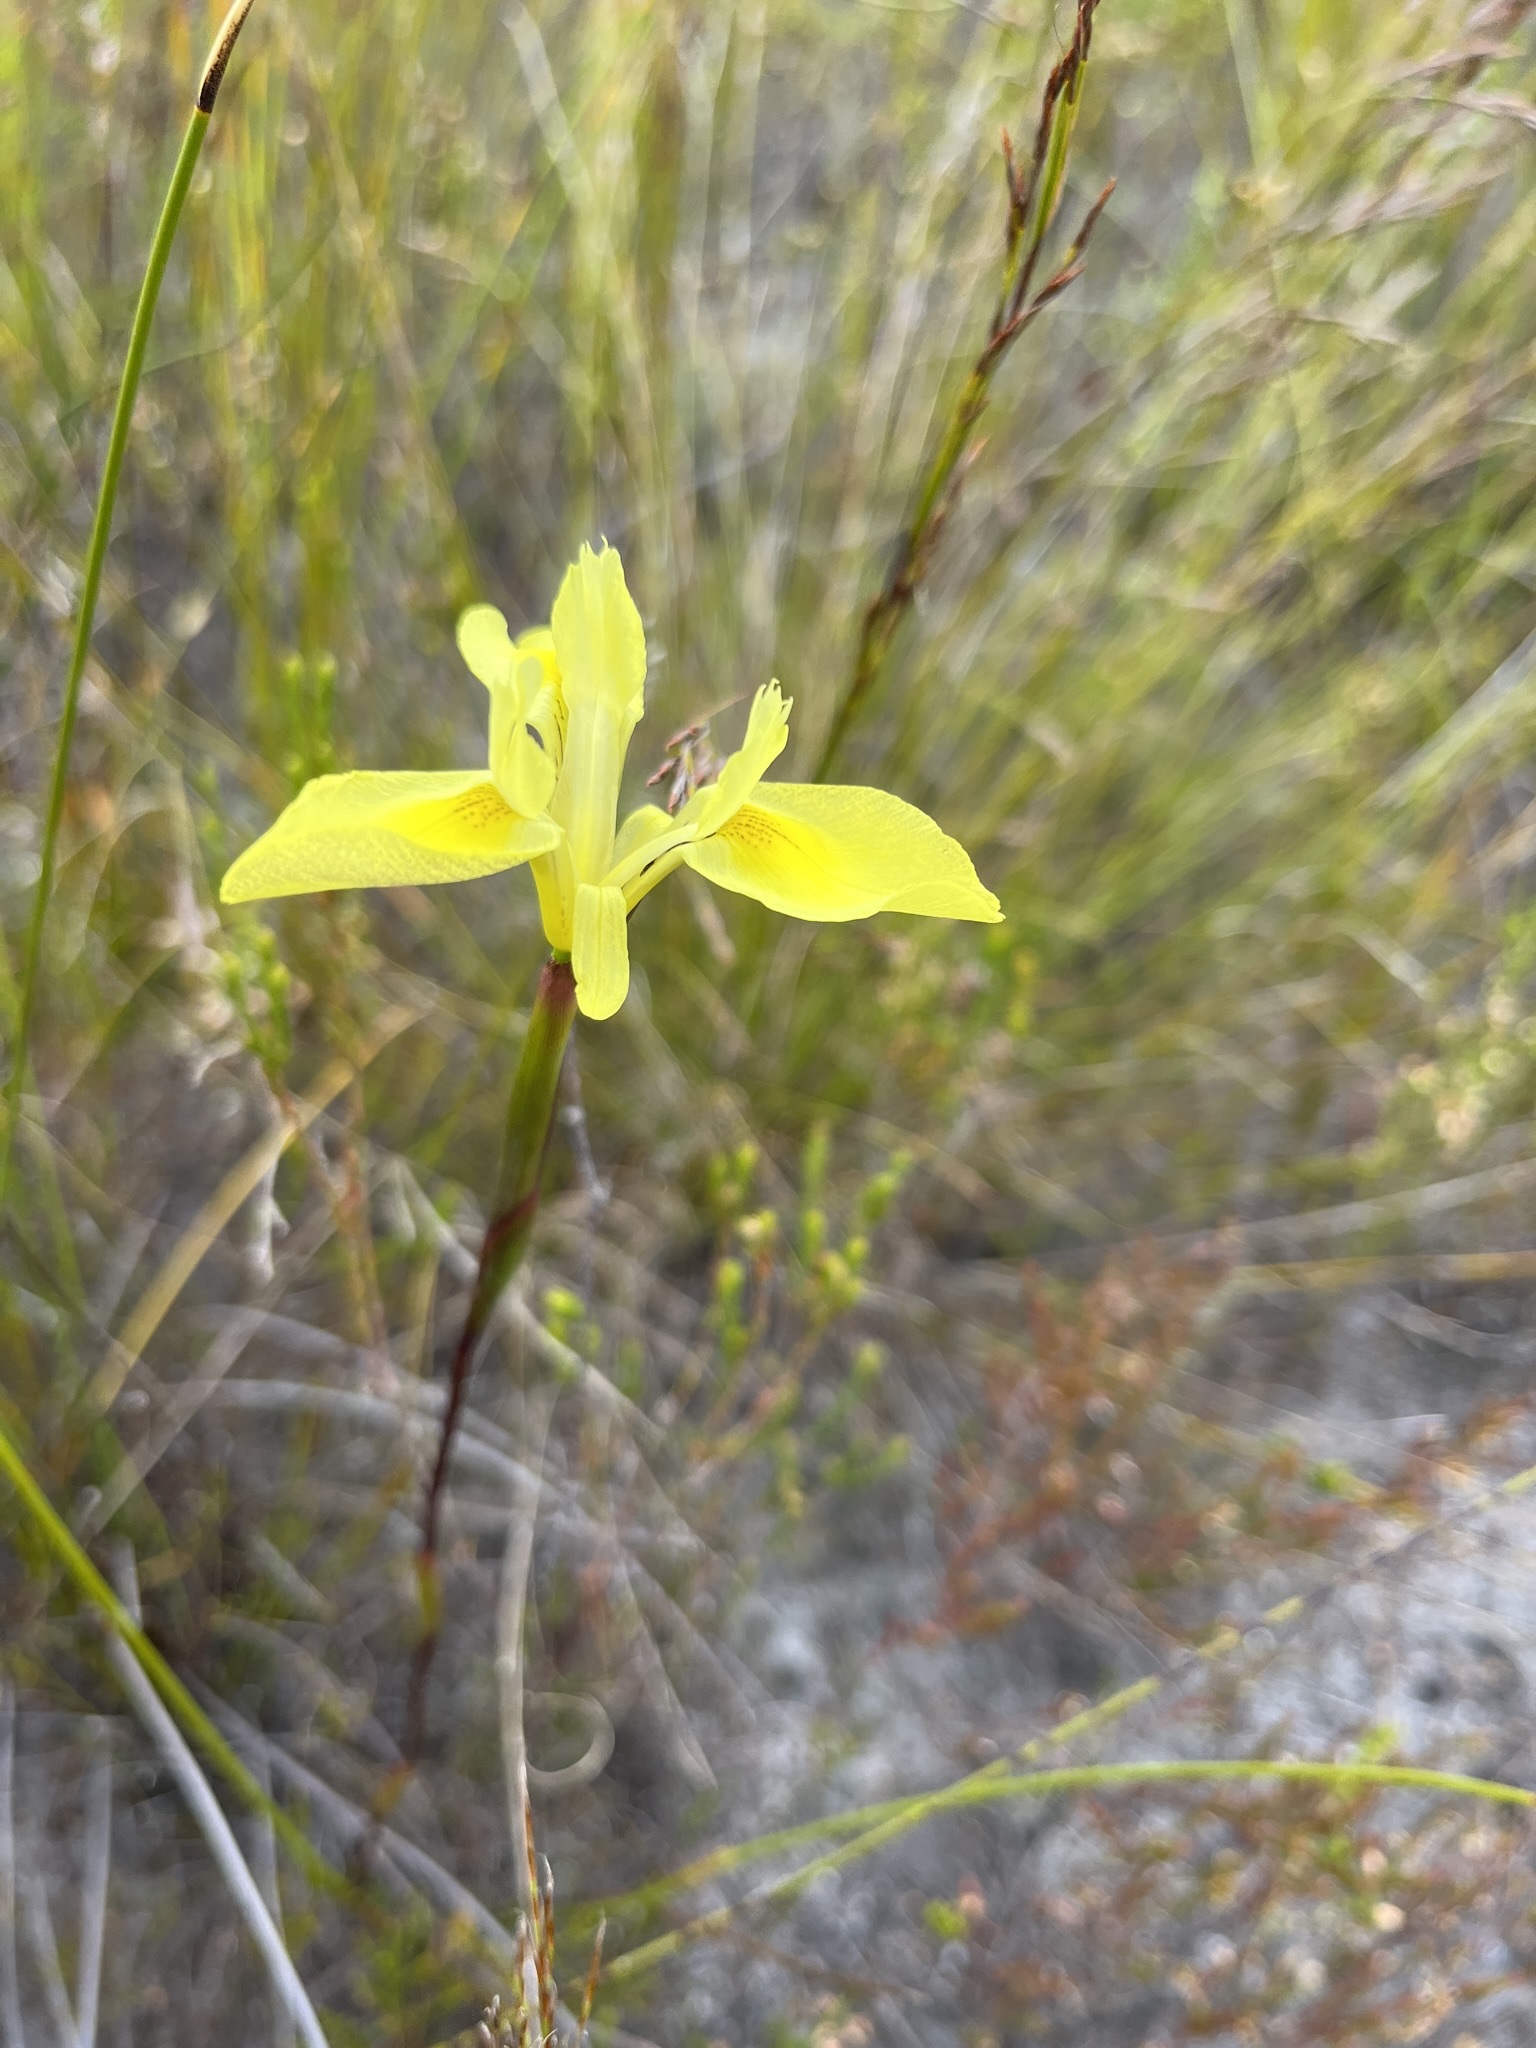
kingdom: Plantae
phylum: Tracheophyta
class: Liliopsida
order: Asparagales
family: Iridaceae
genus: Moraea
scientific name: Moraea neglecta
